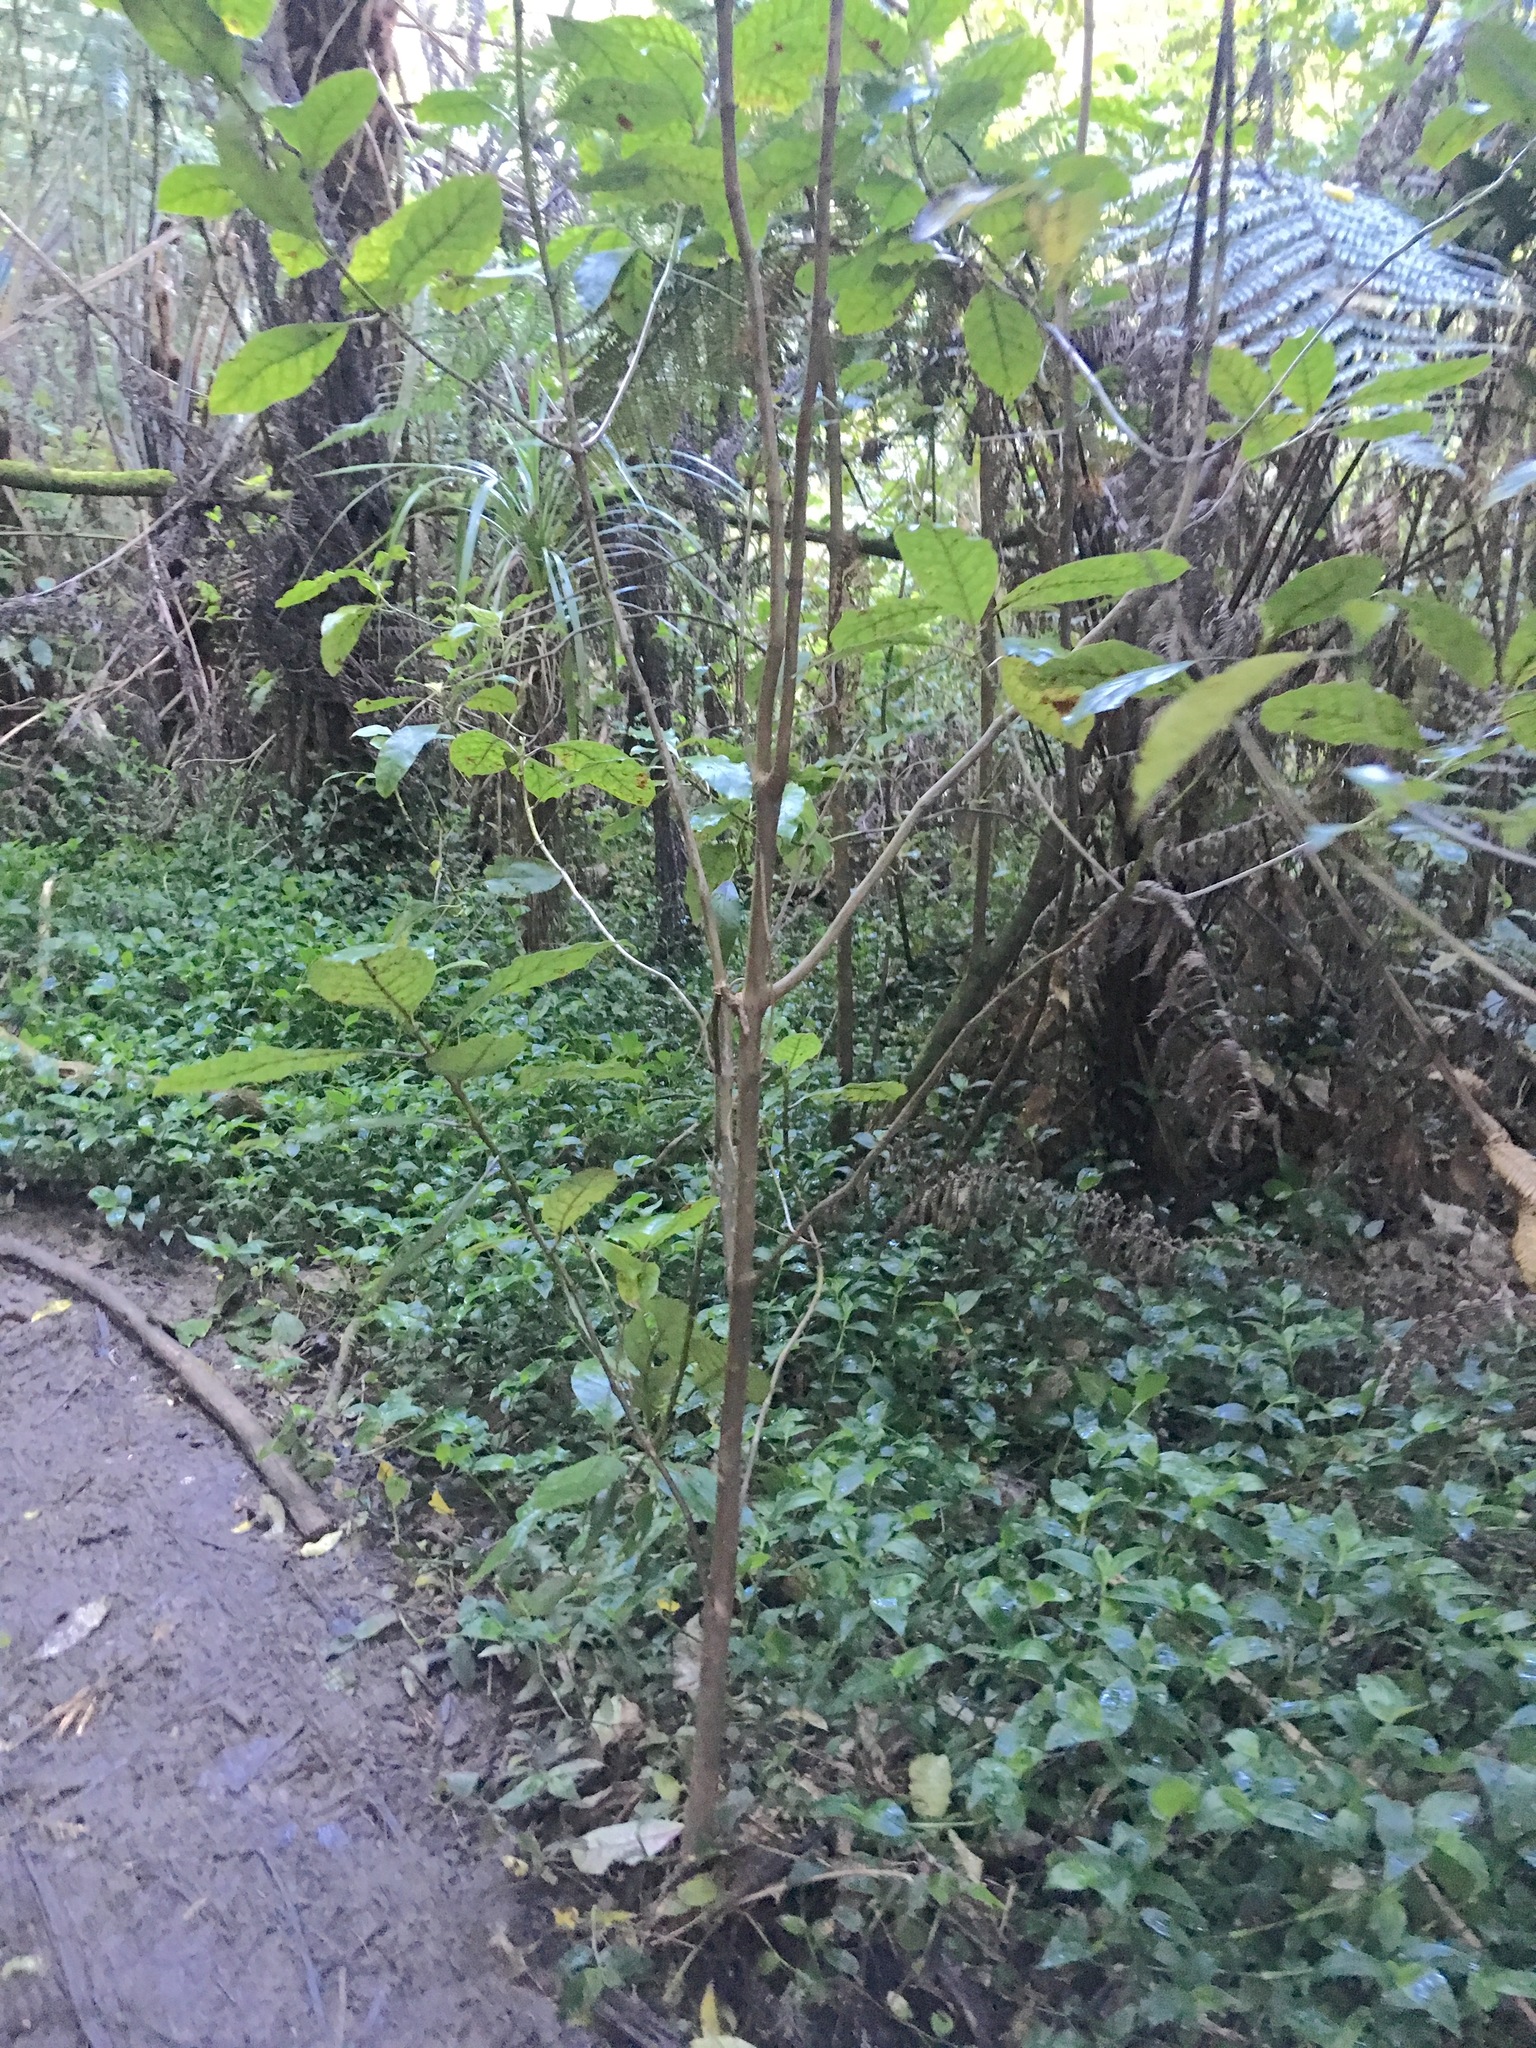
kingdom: Plantae
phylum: Tracheophyta
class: Liliopsida
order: Commelinales
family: Commelinaceae
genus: Tradescantia
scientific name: Tradescantia fluminensis
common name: Wandering-jew
